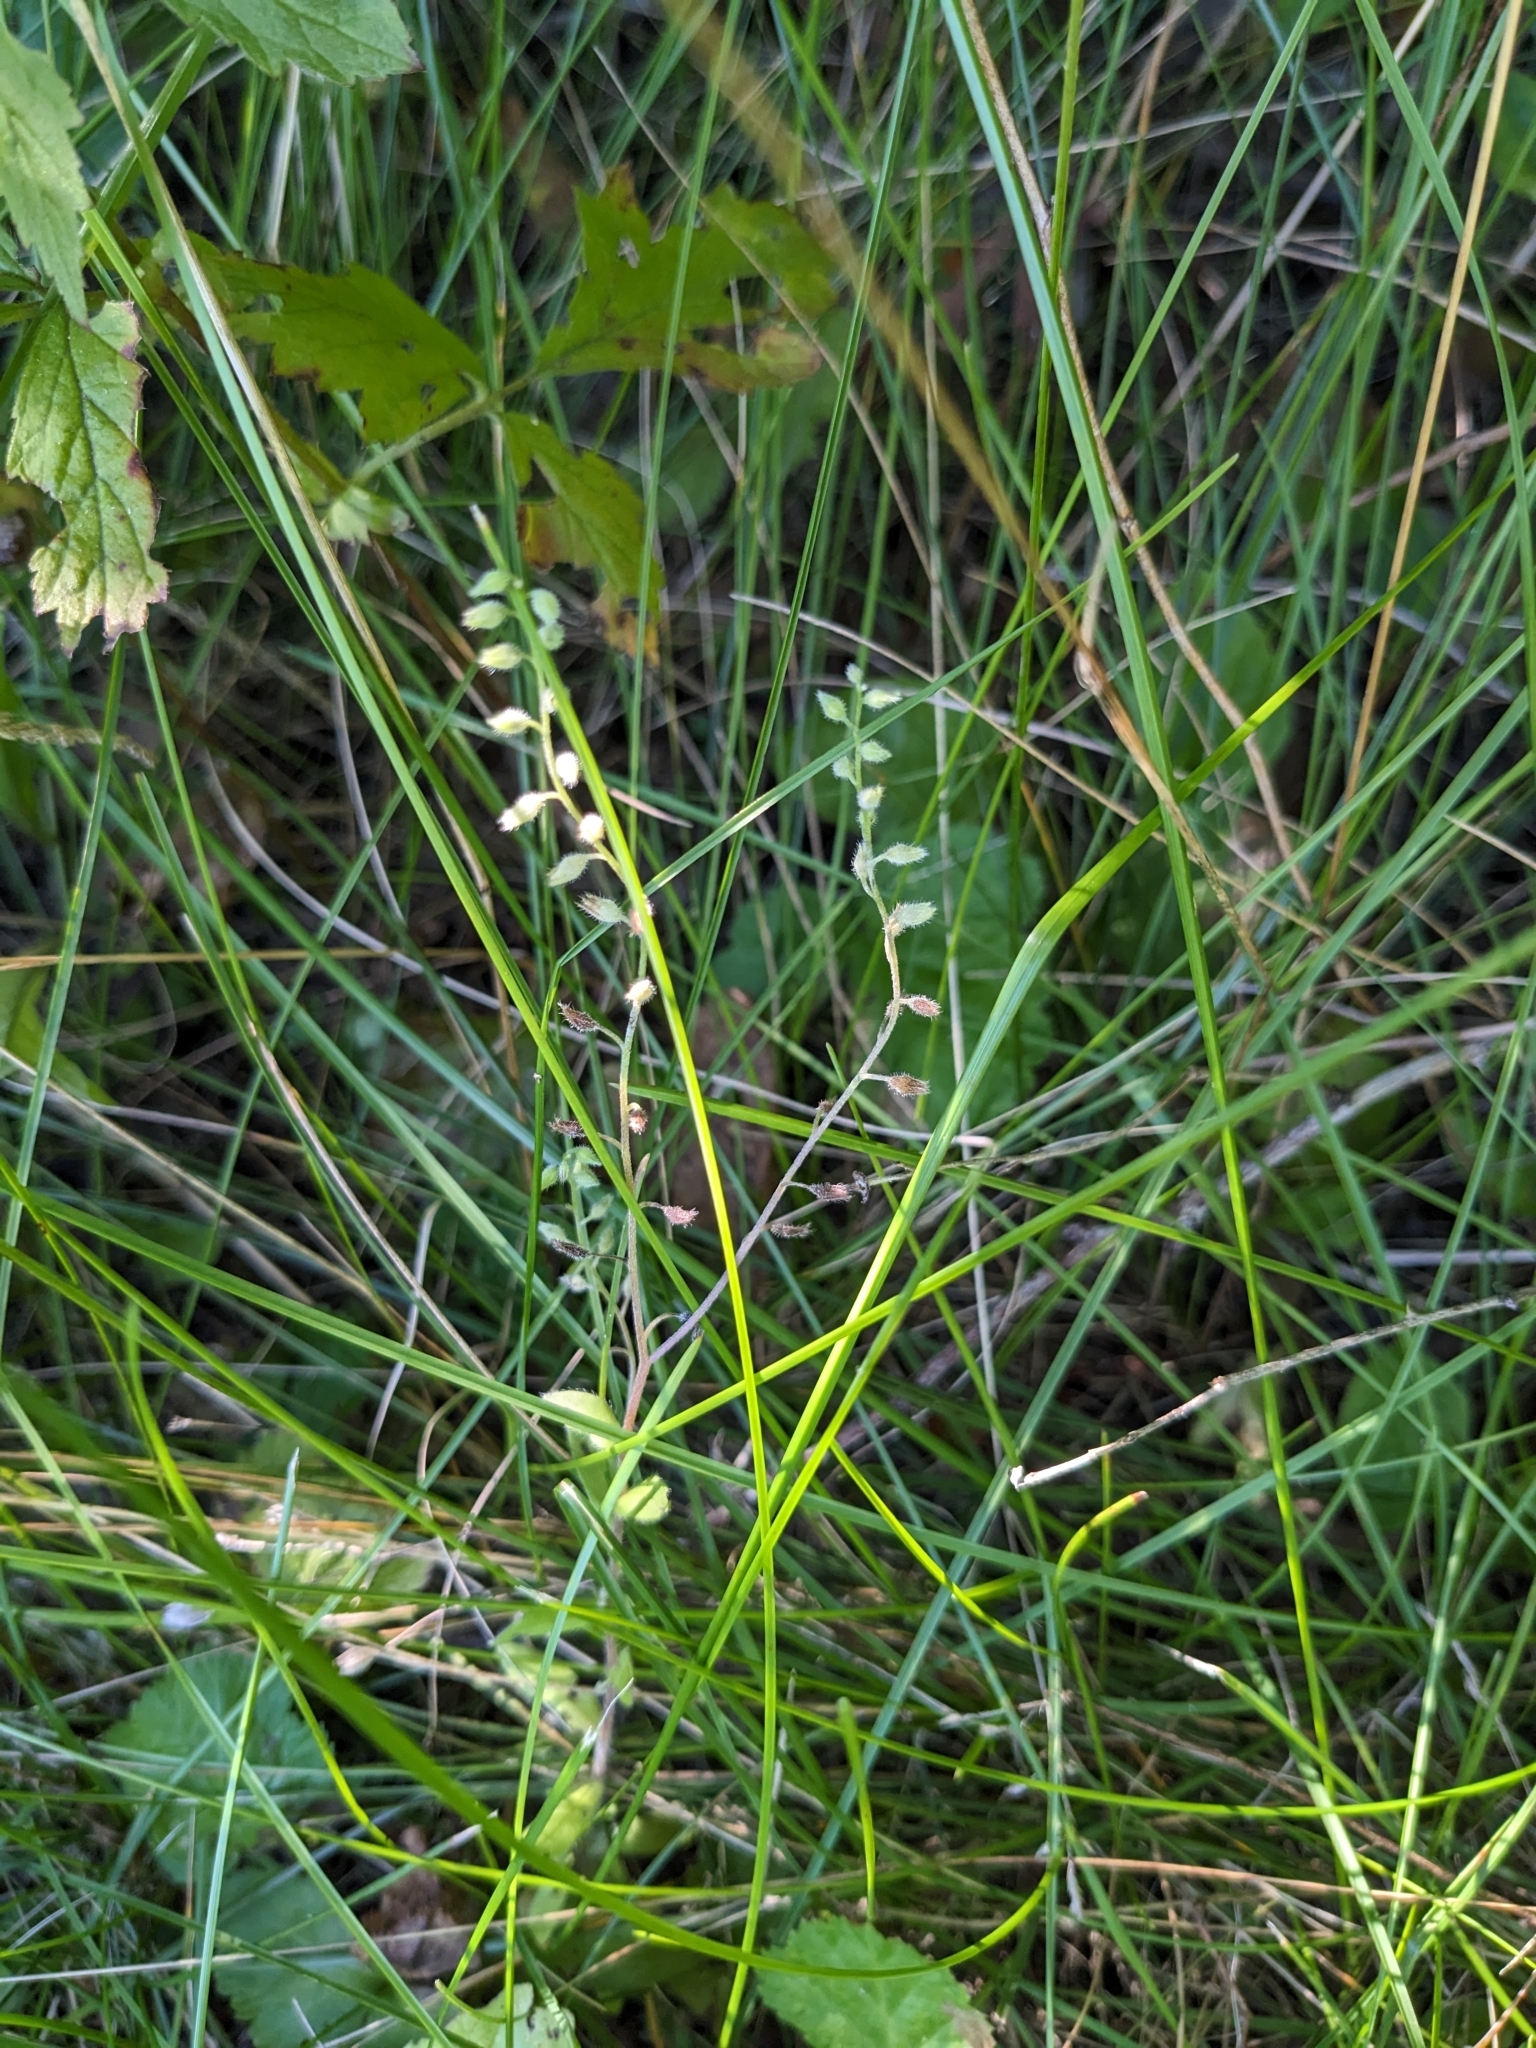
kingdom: Plantae
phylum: Tracheophyta
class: Magnoliopsida
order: Boraginales
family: Boraginaceae
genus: Myosotis
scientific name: Myosotis arvensis
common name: Field forget-me-not
